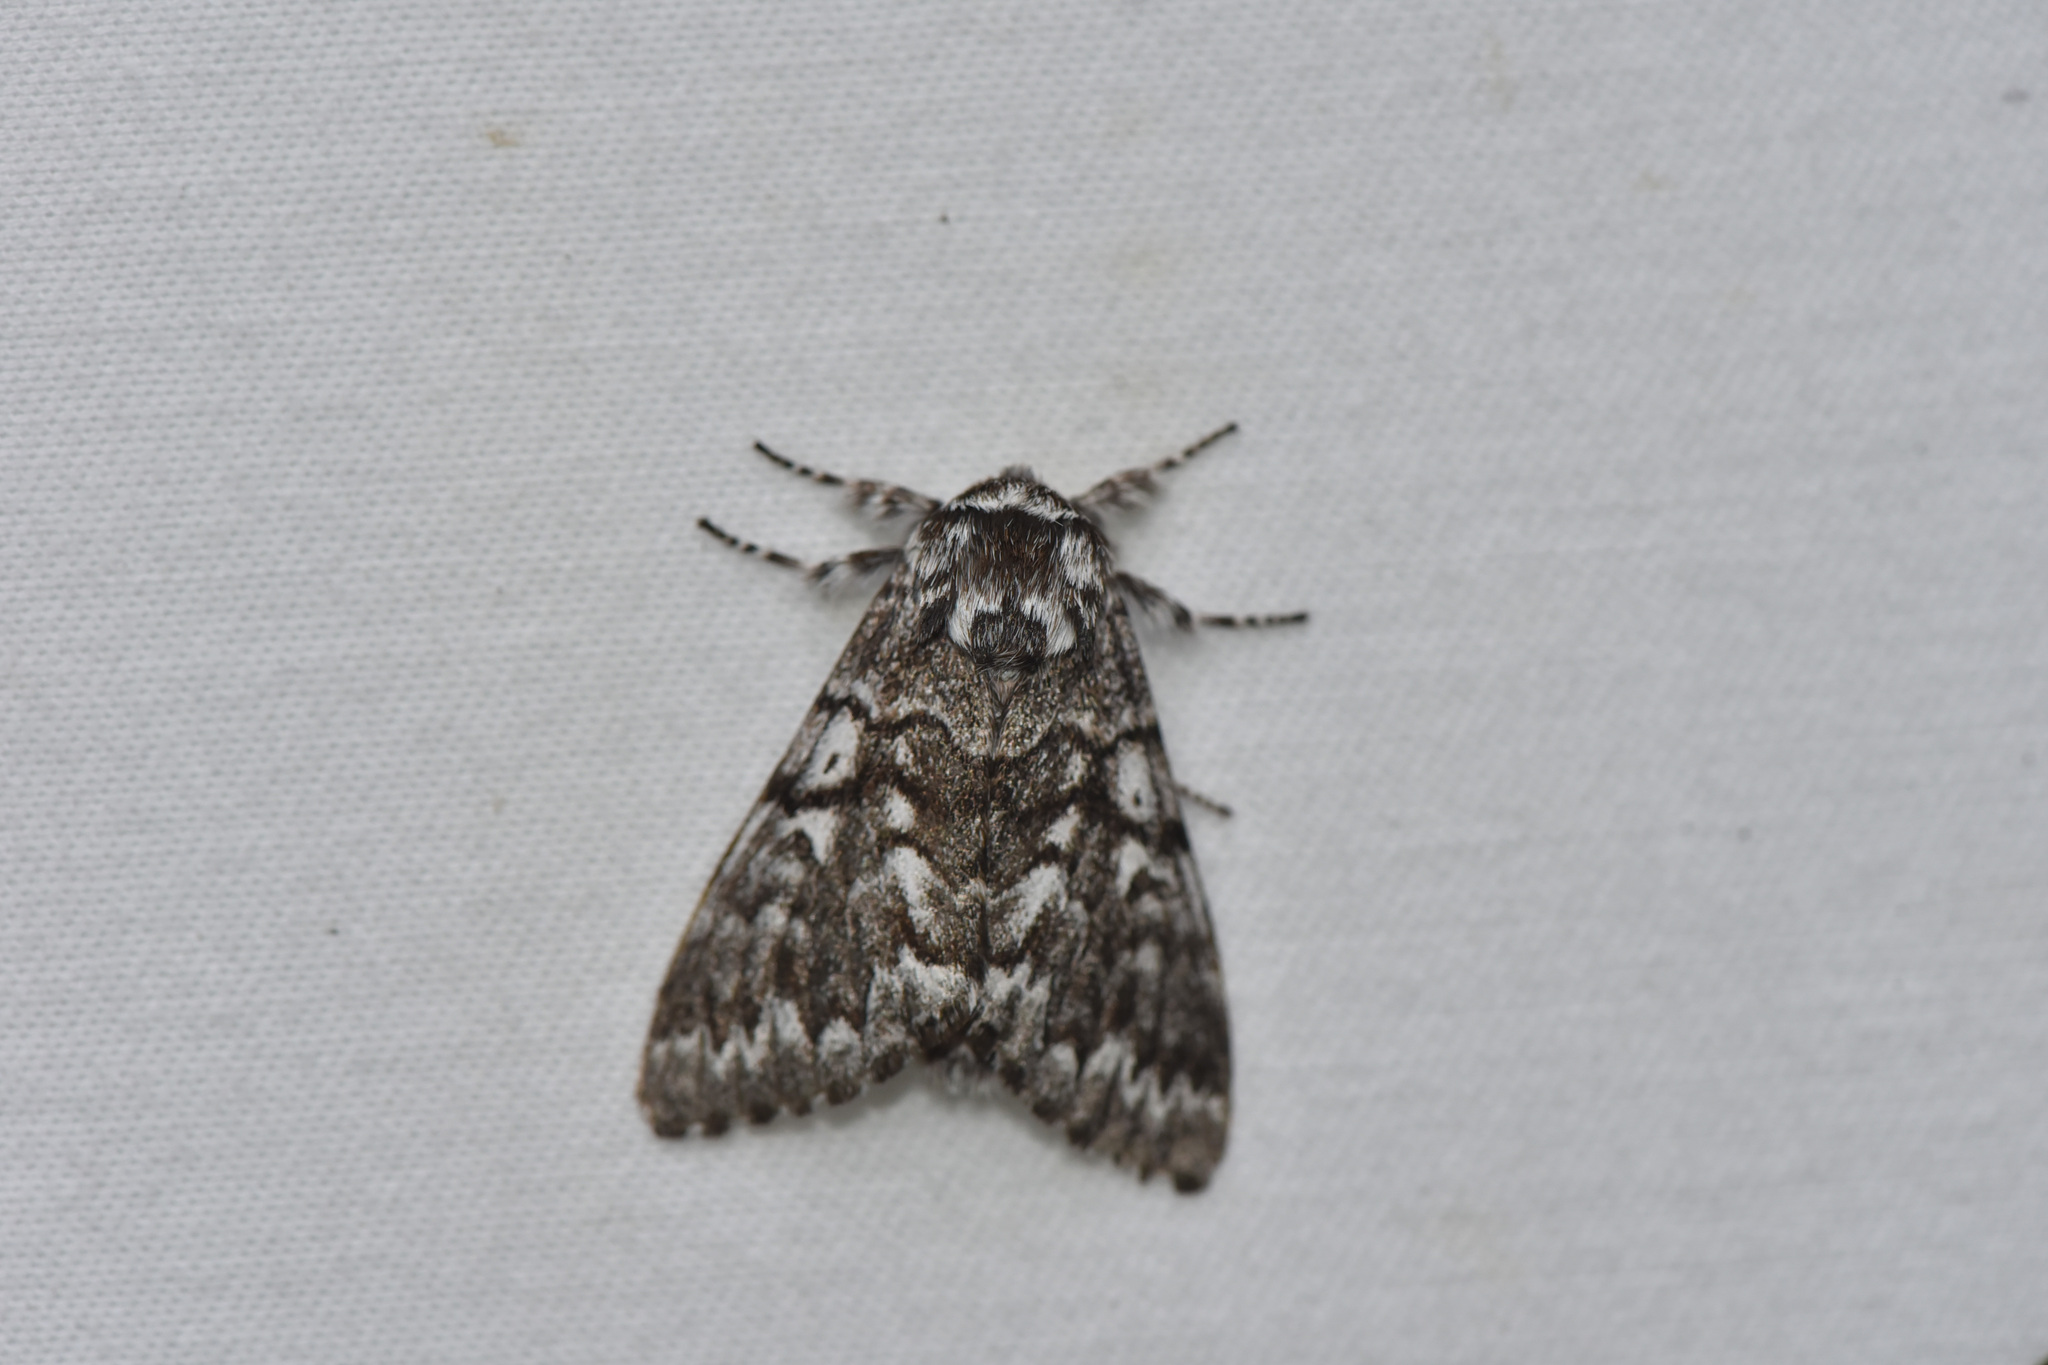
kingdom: Animalia
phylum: Arthropoda
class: Insecta
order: Lepidoptera
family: Noctuidae
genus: Panthea
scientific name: Panthea virginarius
